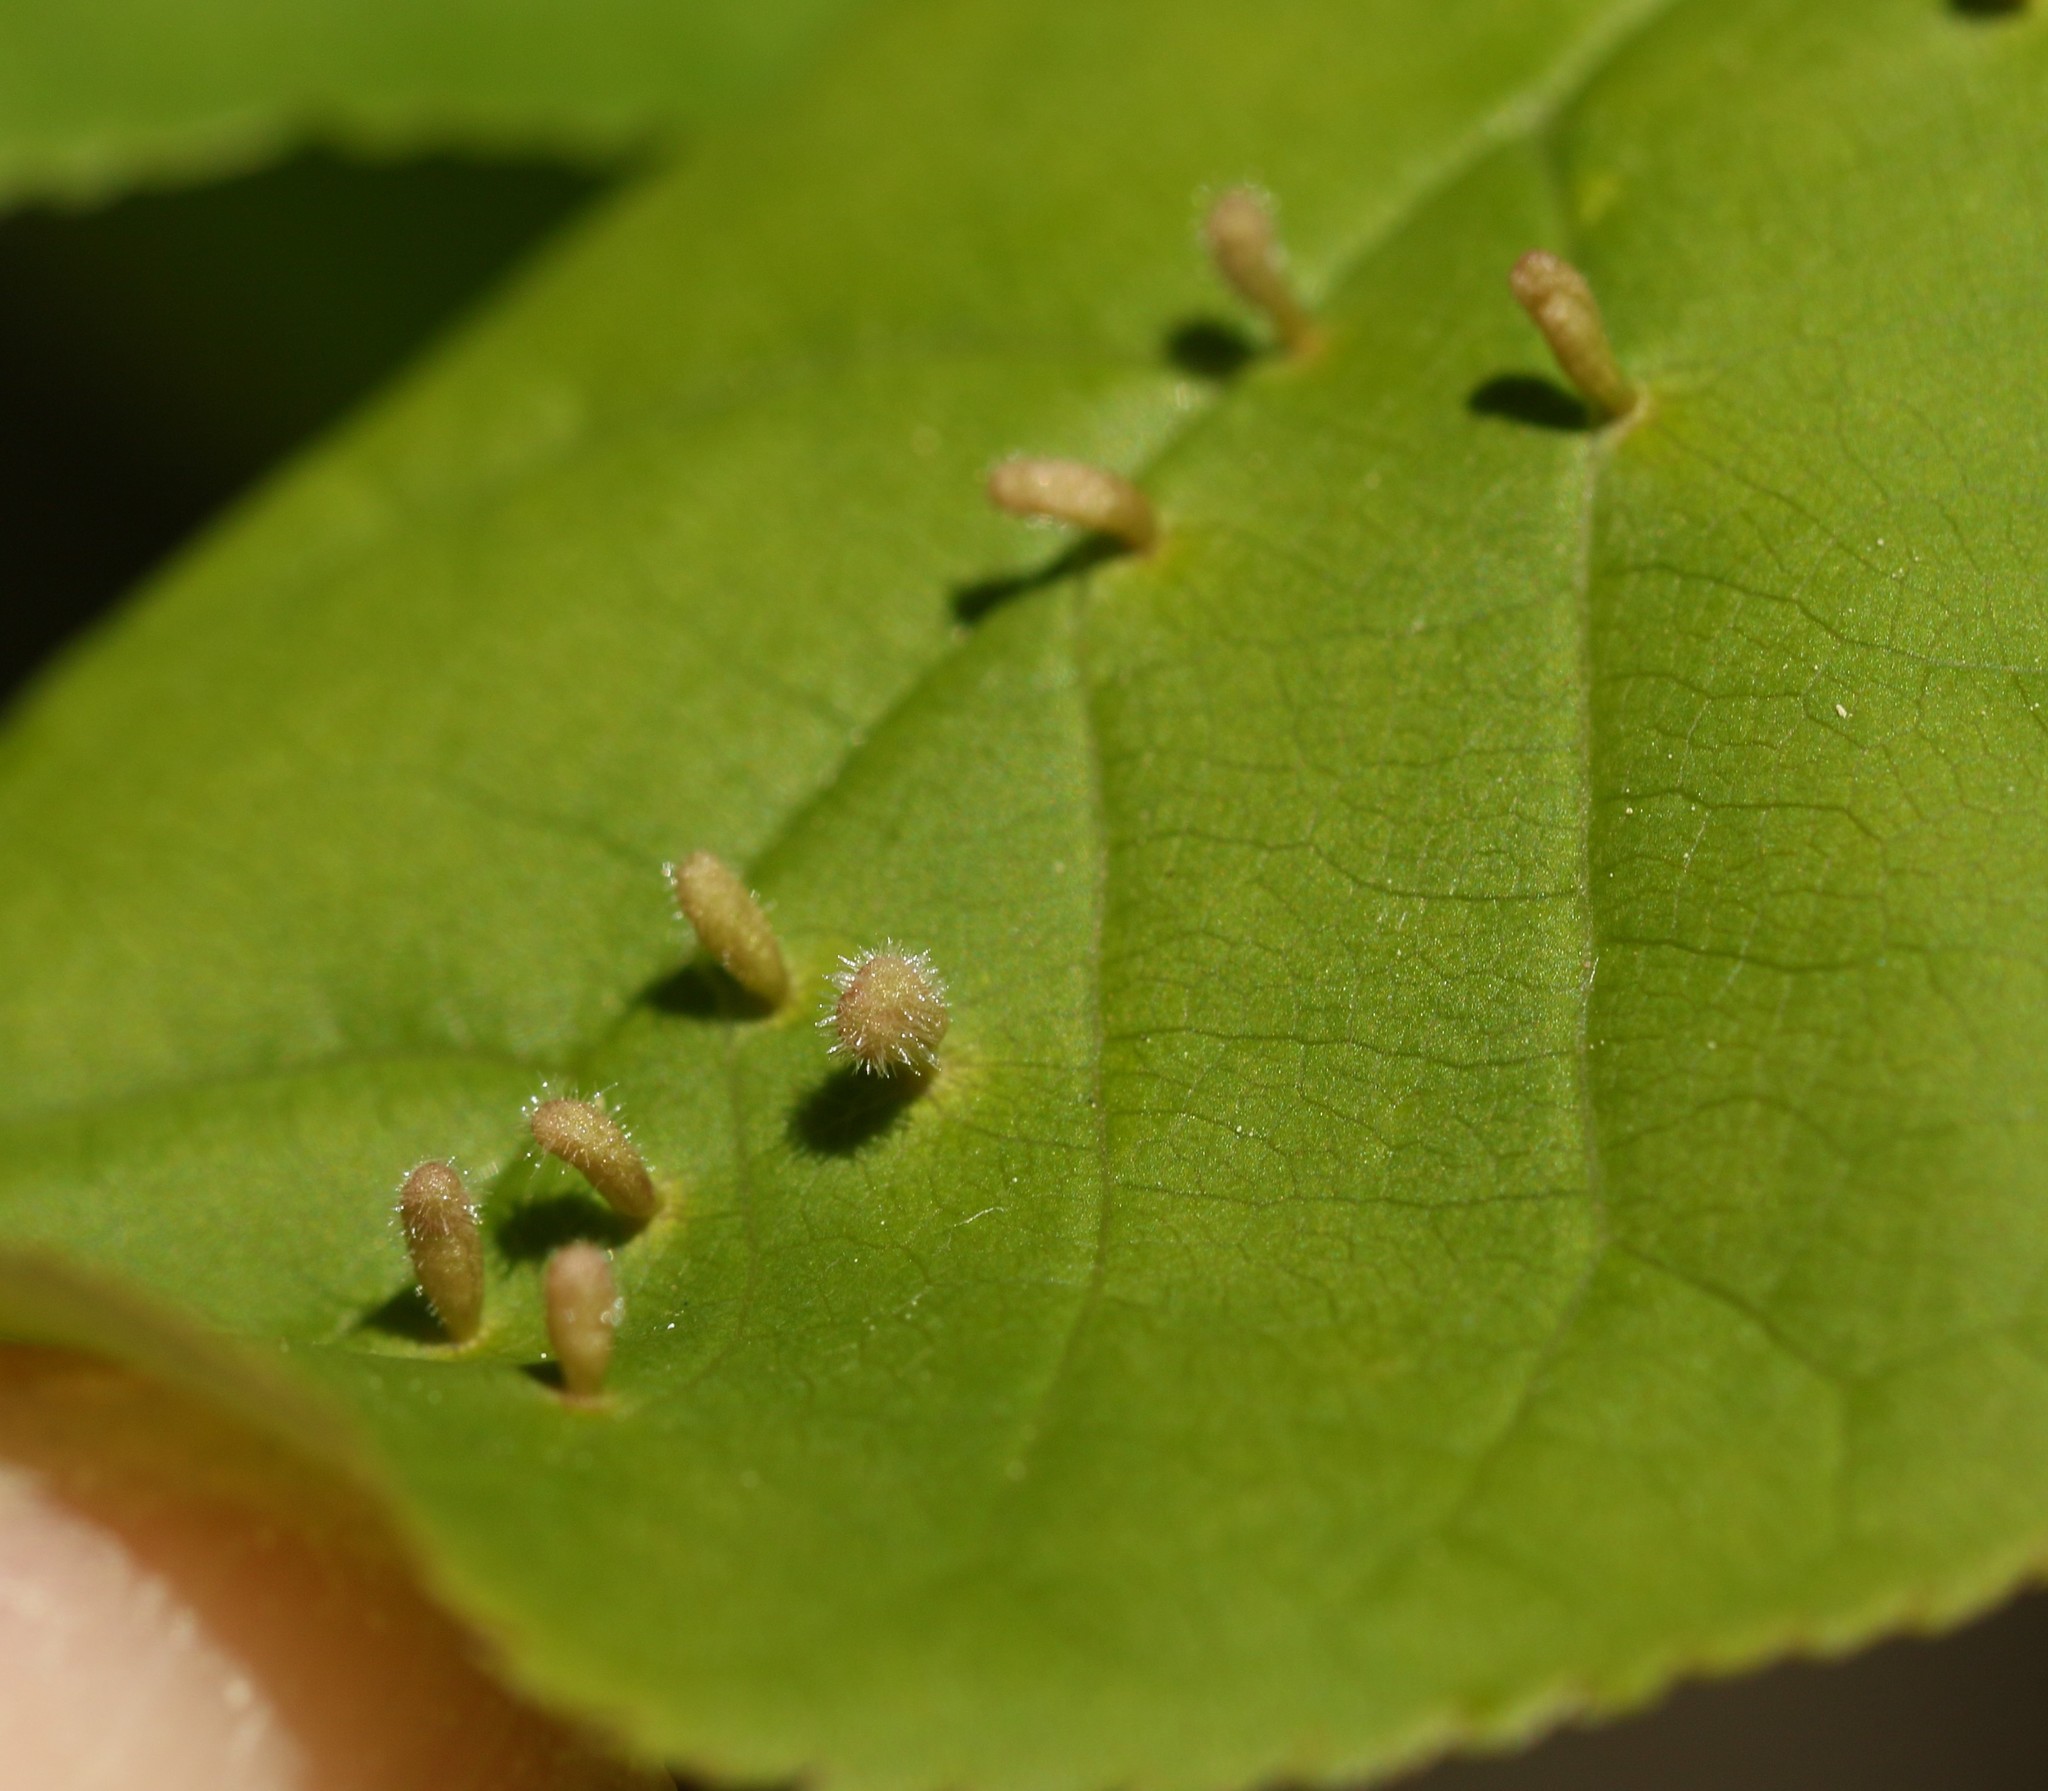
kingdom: Animalia
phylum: Arthropoda
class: Arachnida
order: Trombidiformes
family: Eriophyidae
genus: Eriophyes
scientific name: Eriophyes emarginatae
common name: Plum leaf gall mite
